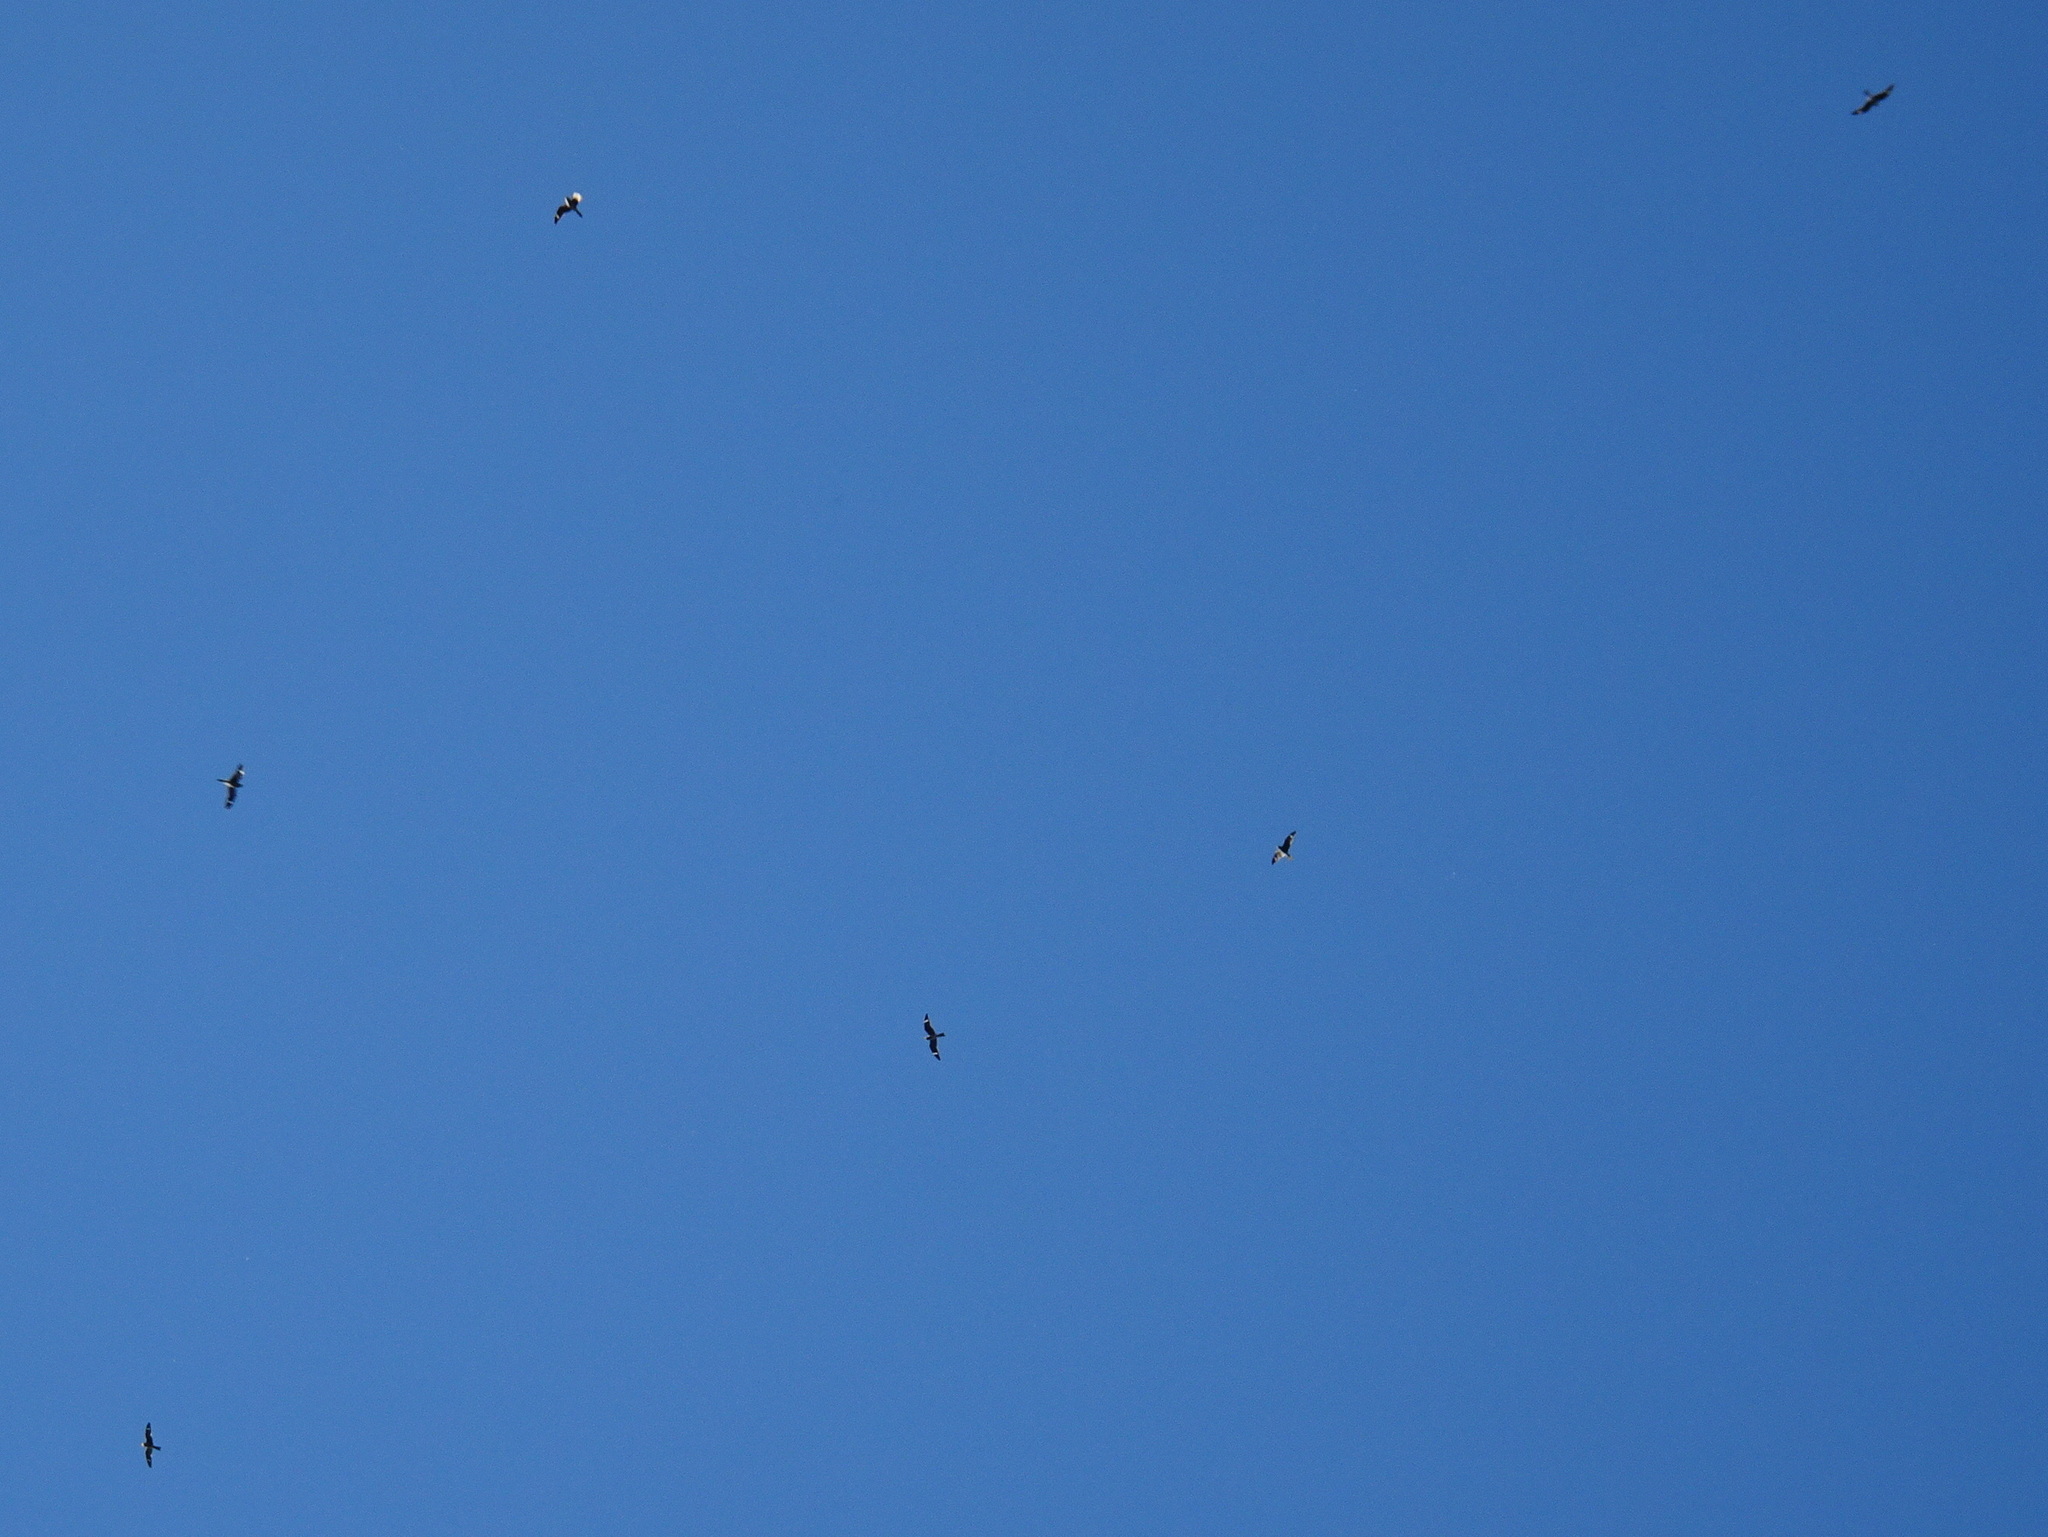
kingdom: Animalia
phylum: Chordata
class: Aves
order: Caprimulgiformes
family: Caprimulgidae
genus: Chordeiles
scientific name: Chordeiles minor
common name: Common nighthawk
